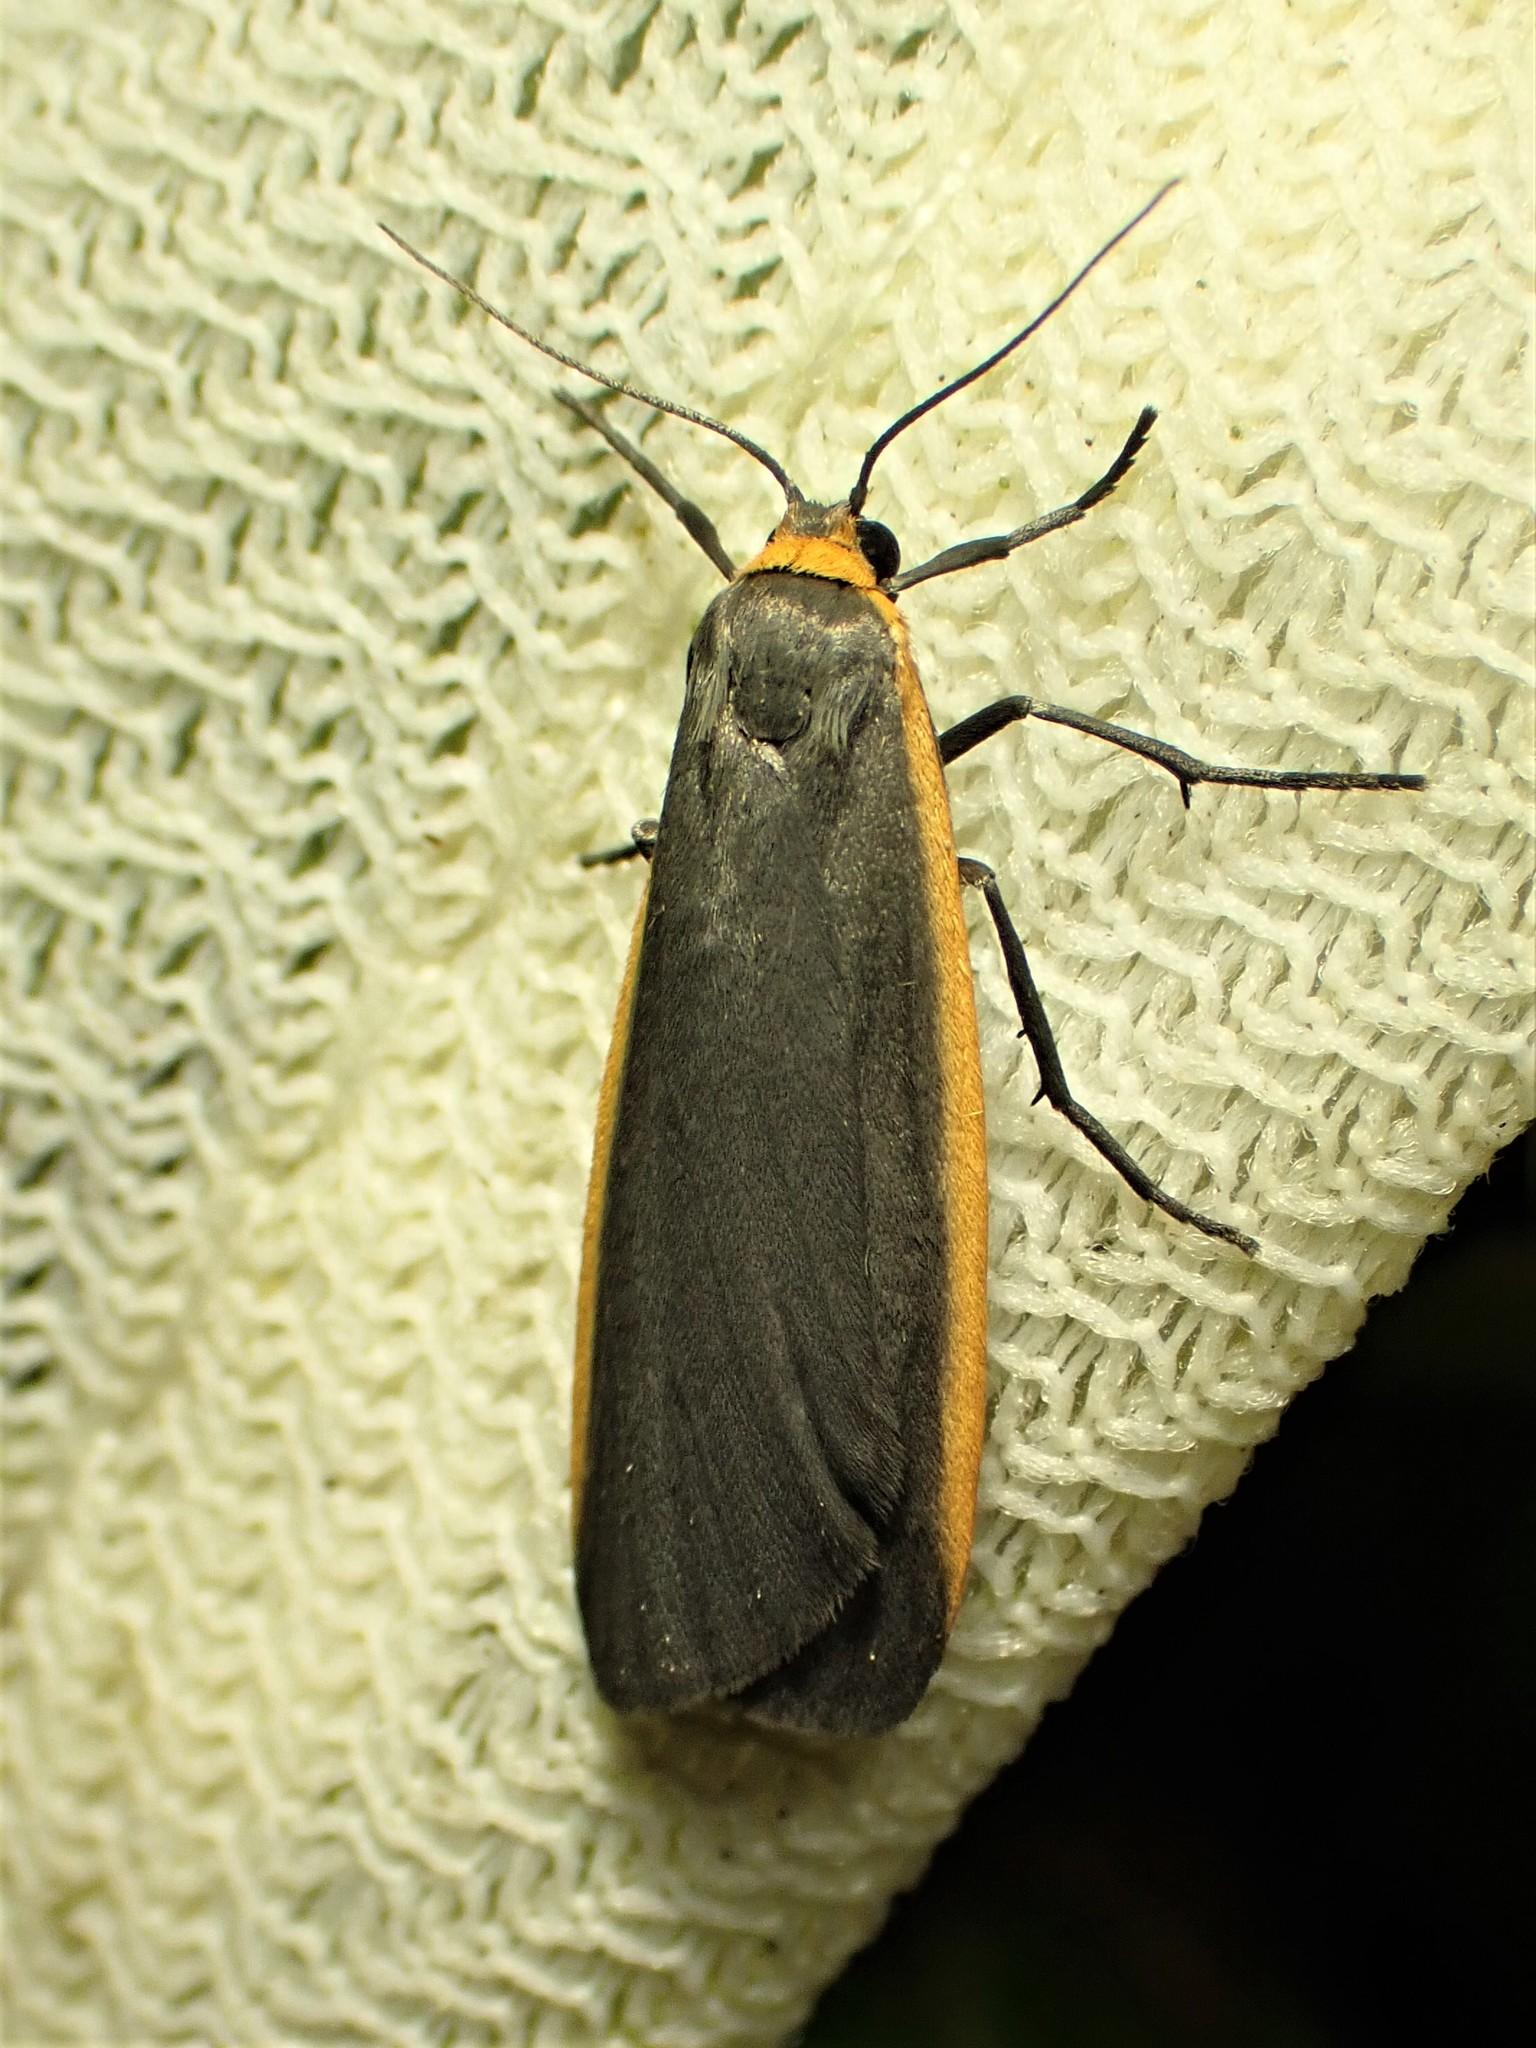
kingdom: Animalia
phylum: Arthropoda
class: Insecta
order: Lepidoptera
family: Erebidae
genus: Manulea
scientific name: Manulea bicolor
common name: Bicolored moth
